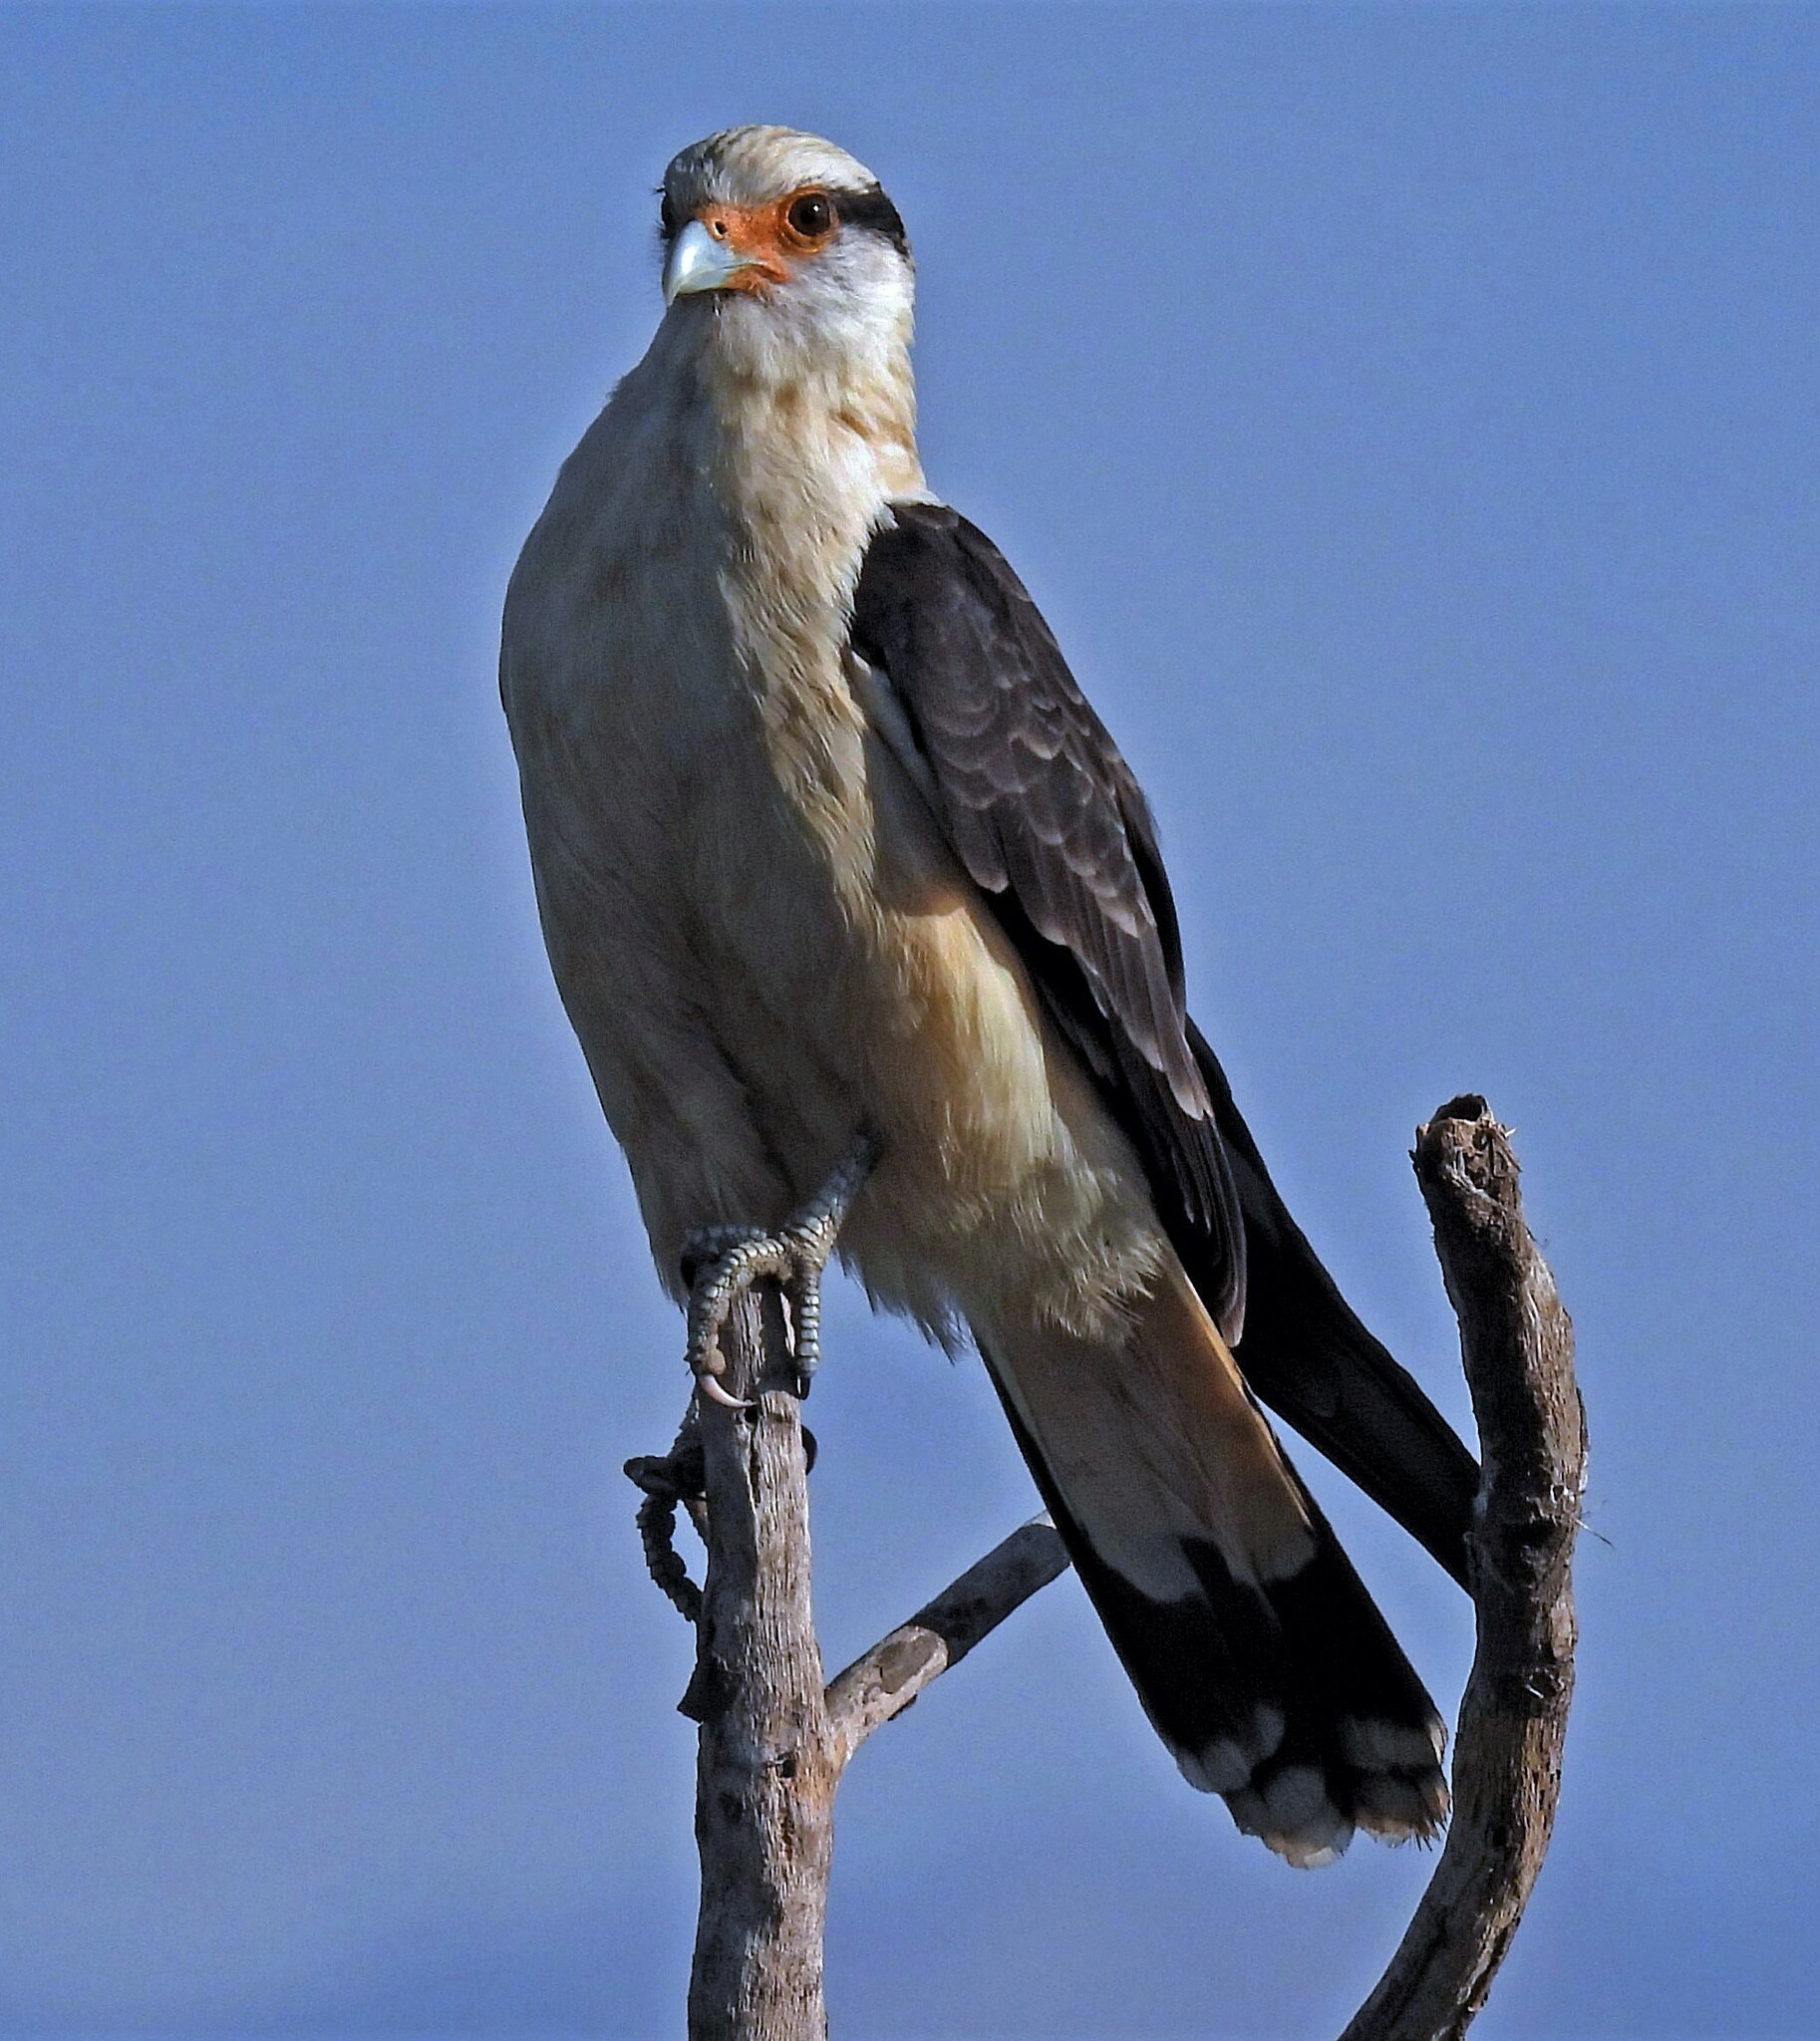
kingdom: Animalia
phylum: Chordata
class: Aves
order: Falconiformes
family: Falconidae
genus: Daptrius
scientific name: Daptrius
